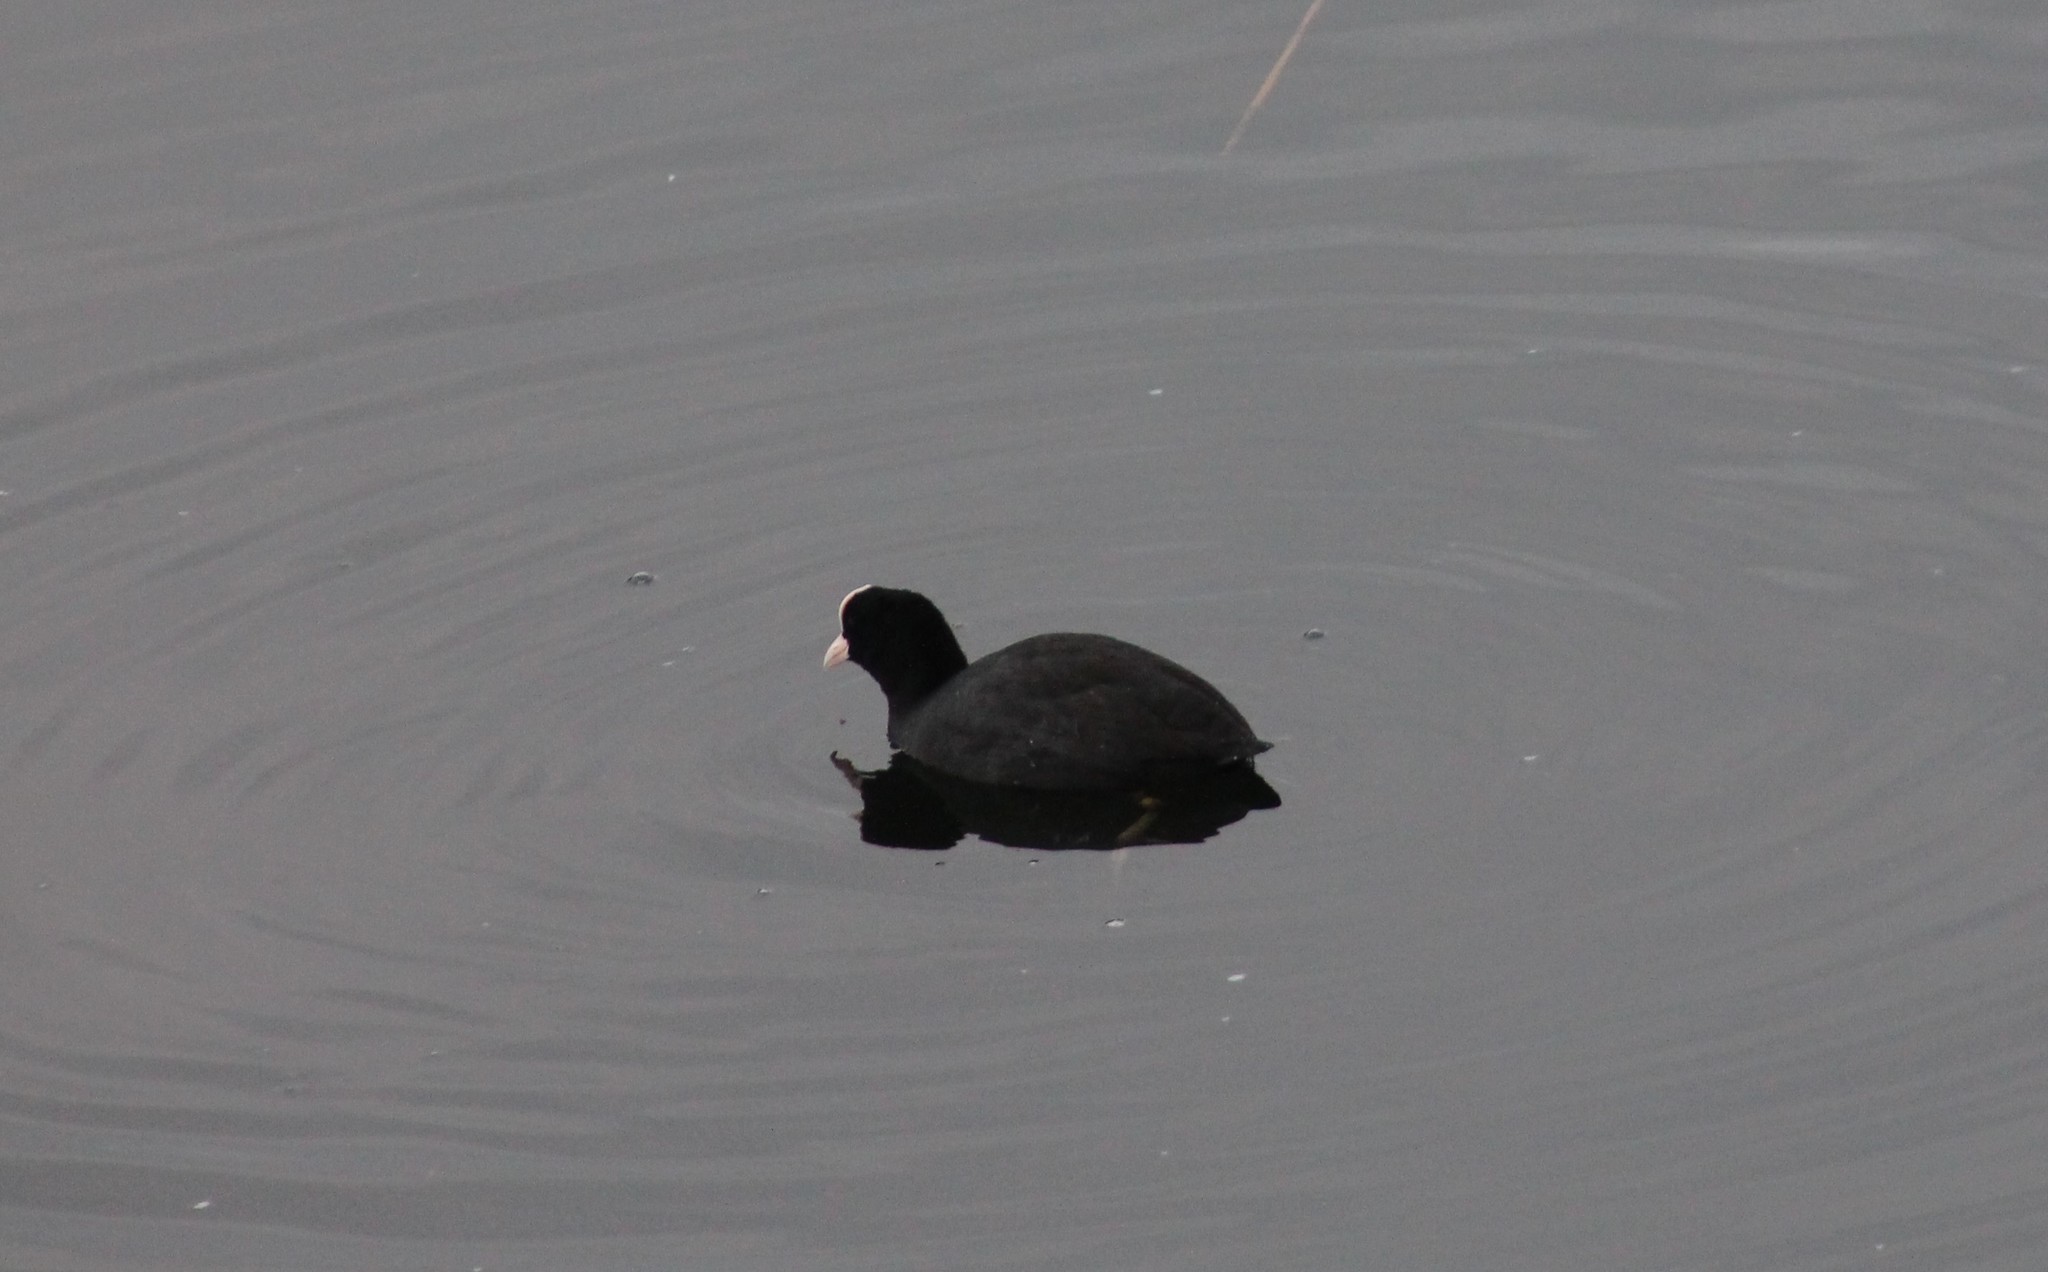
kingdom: Animalia
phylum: Chordata
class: Aves
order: Gruiformes
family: Rallidae
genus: Fulica
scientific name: Fulica atra
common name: Eurasian coot
